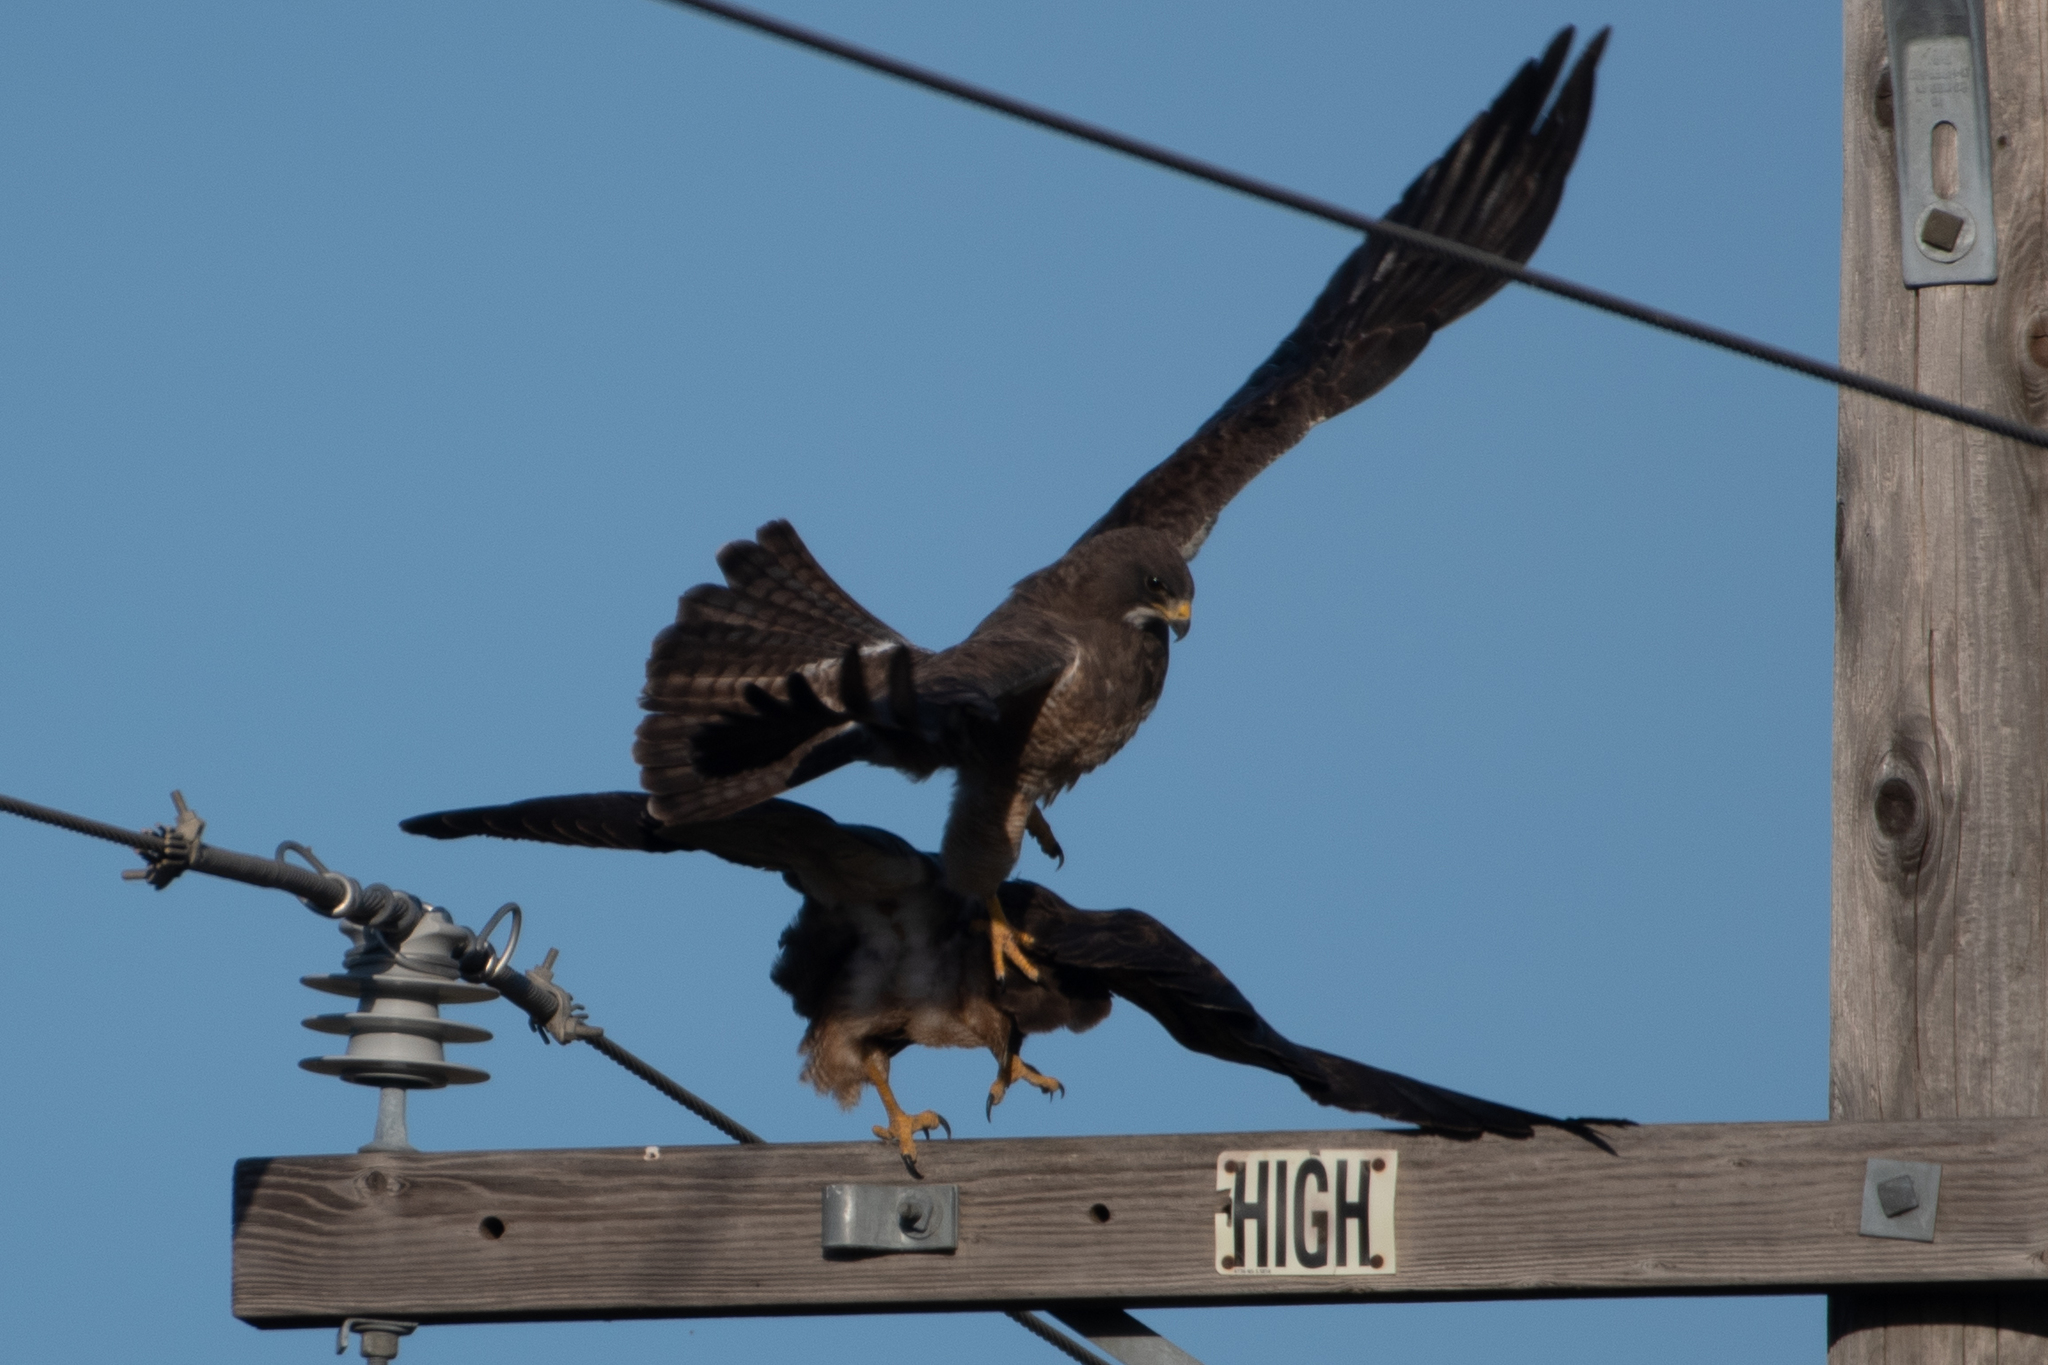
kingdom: Animalia
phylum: Chordata
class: Aves
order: Accipitriformes
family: Accipitridae
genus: Buteo
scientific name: Buteo swainsoni
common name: Swainson's hawk
